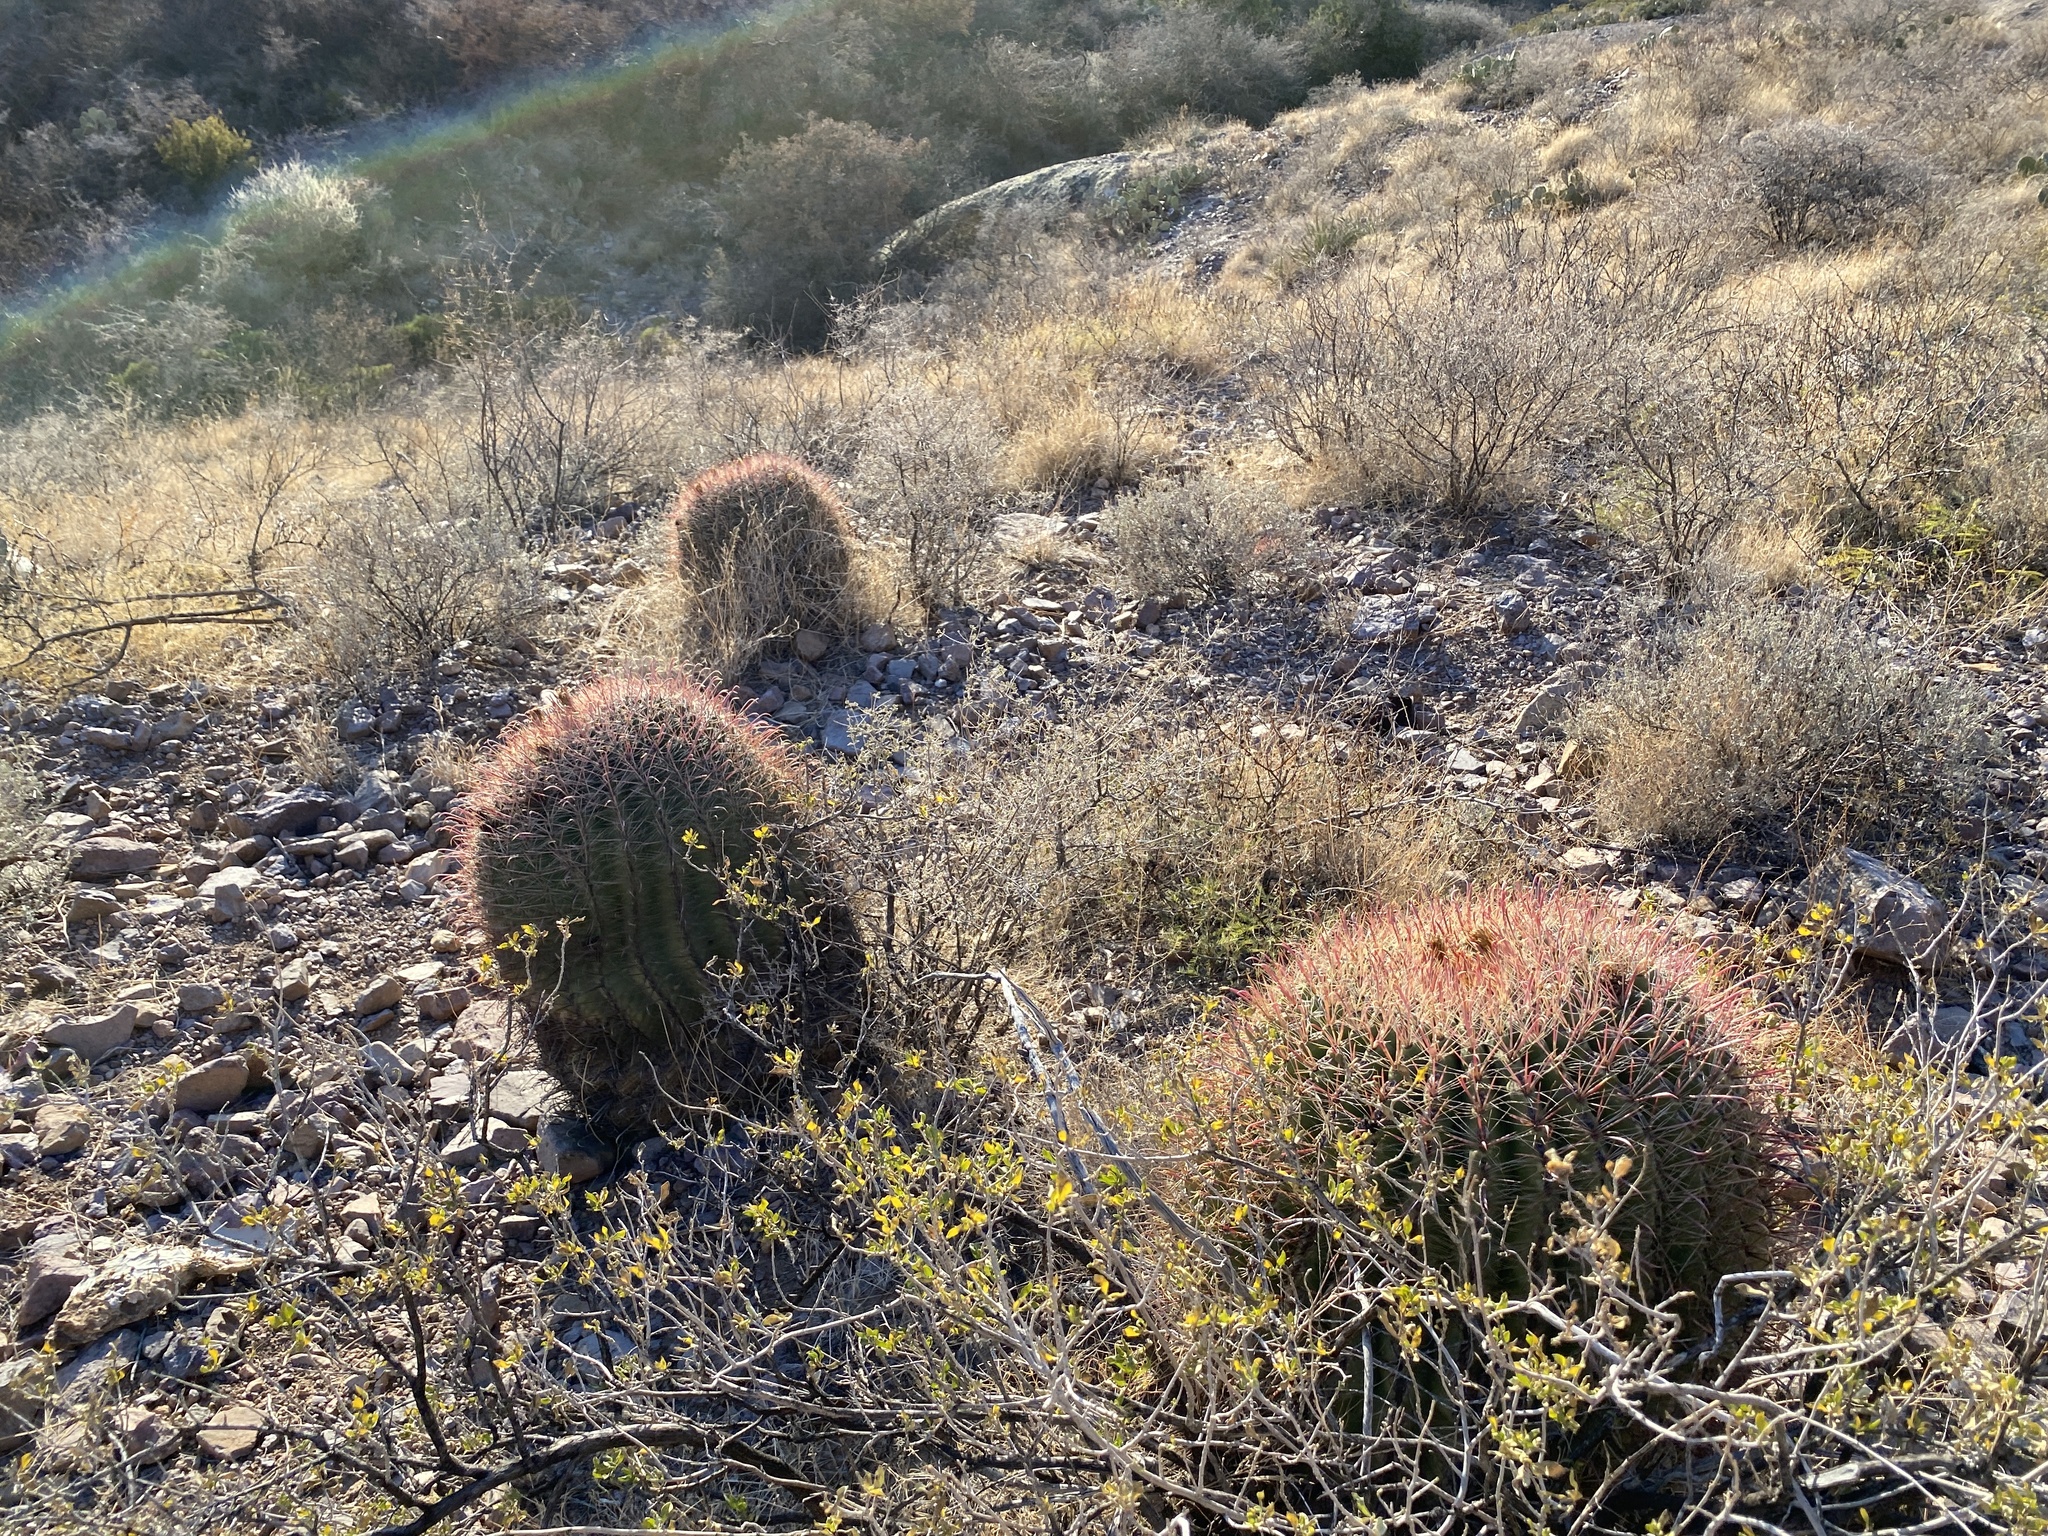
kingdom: Plantae
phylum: Tracheophyta
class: Magnoliopsida
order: Caryophyllales
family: Cactaceae
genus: Ferocactus
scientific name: Ferocactus wislizeni
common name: Candy barrel cactus
